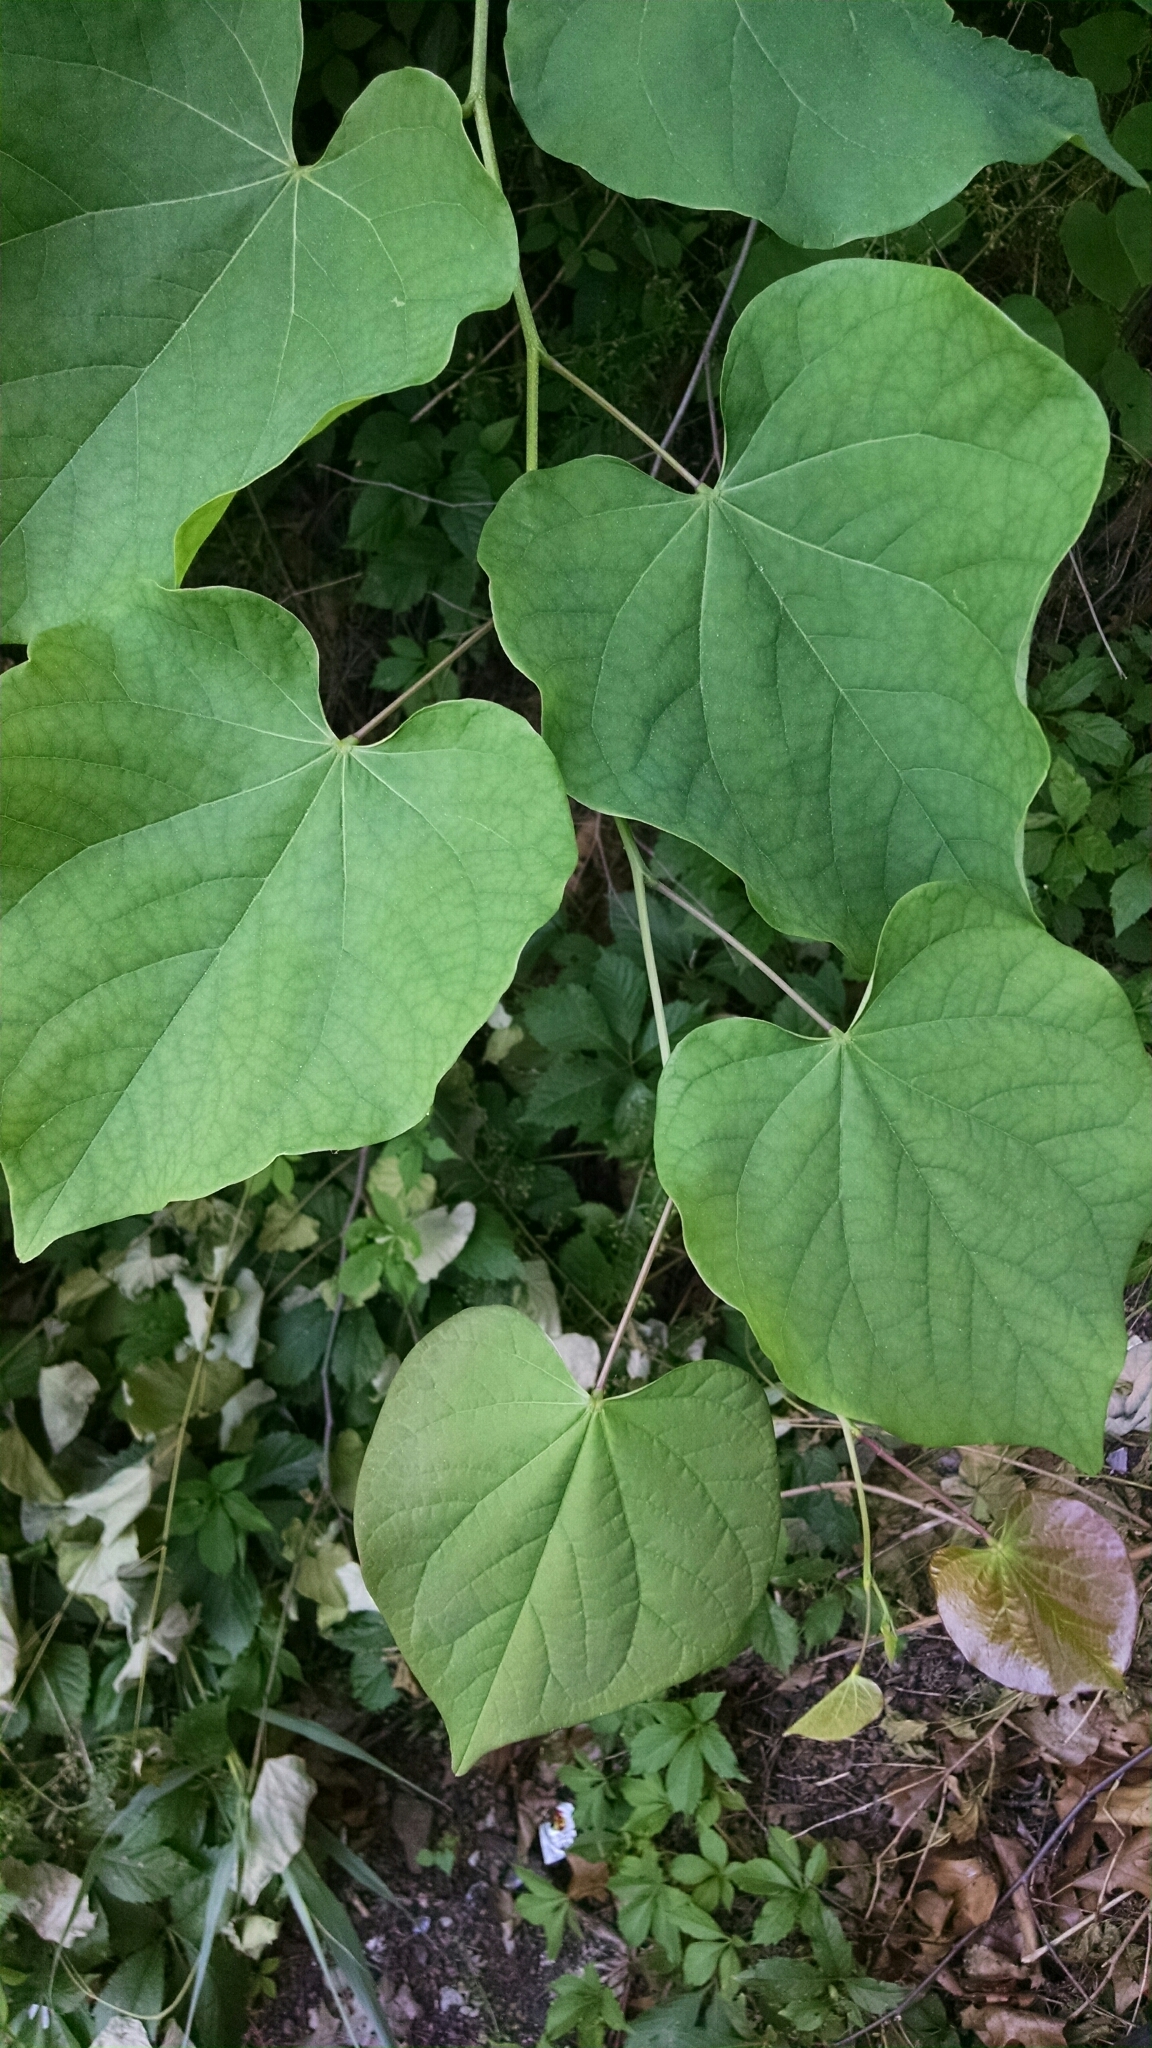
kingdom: Plantae
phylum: Tracheophyta
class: Magnoliopsida
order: Fabales
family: Fabaceae
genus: Cercis
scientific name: Cercis canadensis
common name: Eastern redbud
